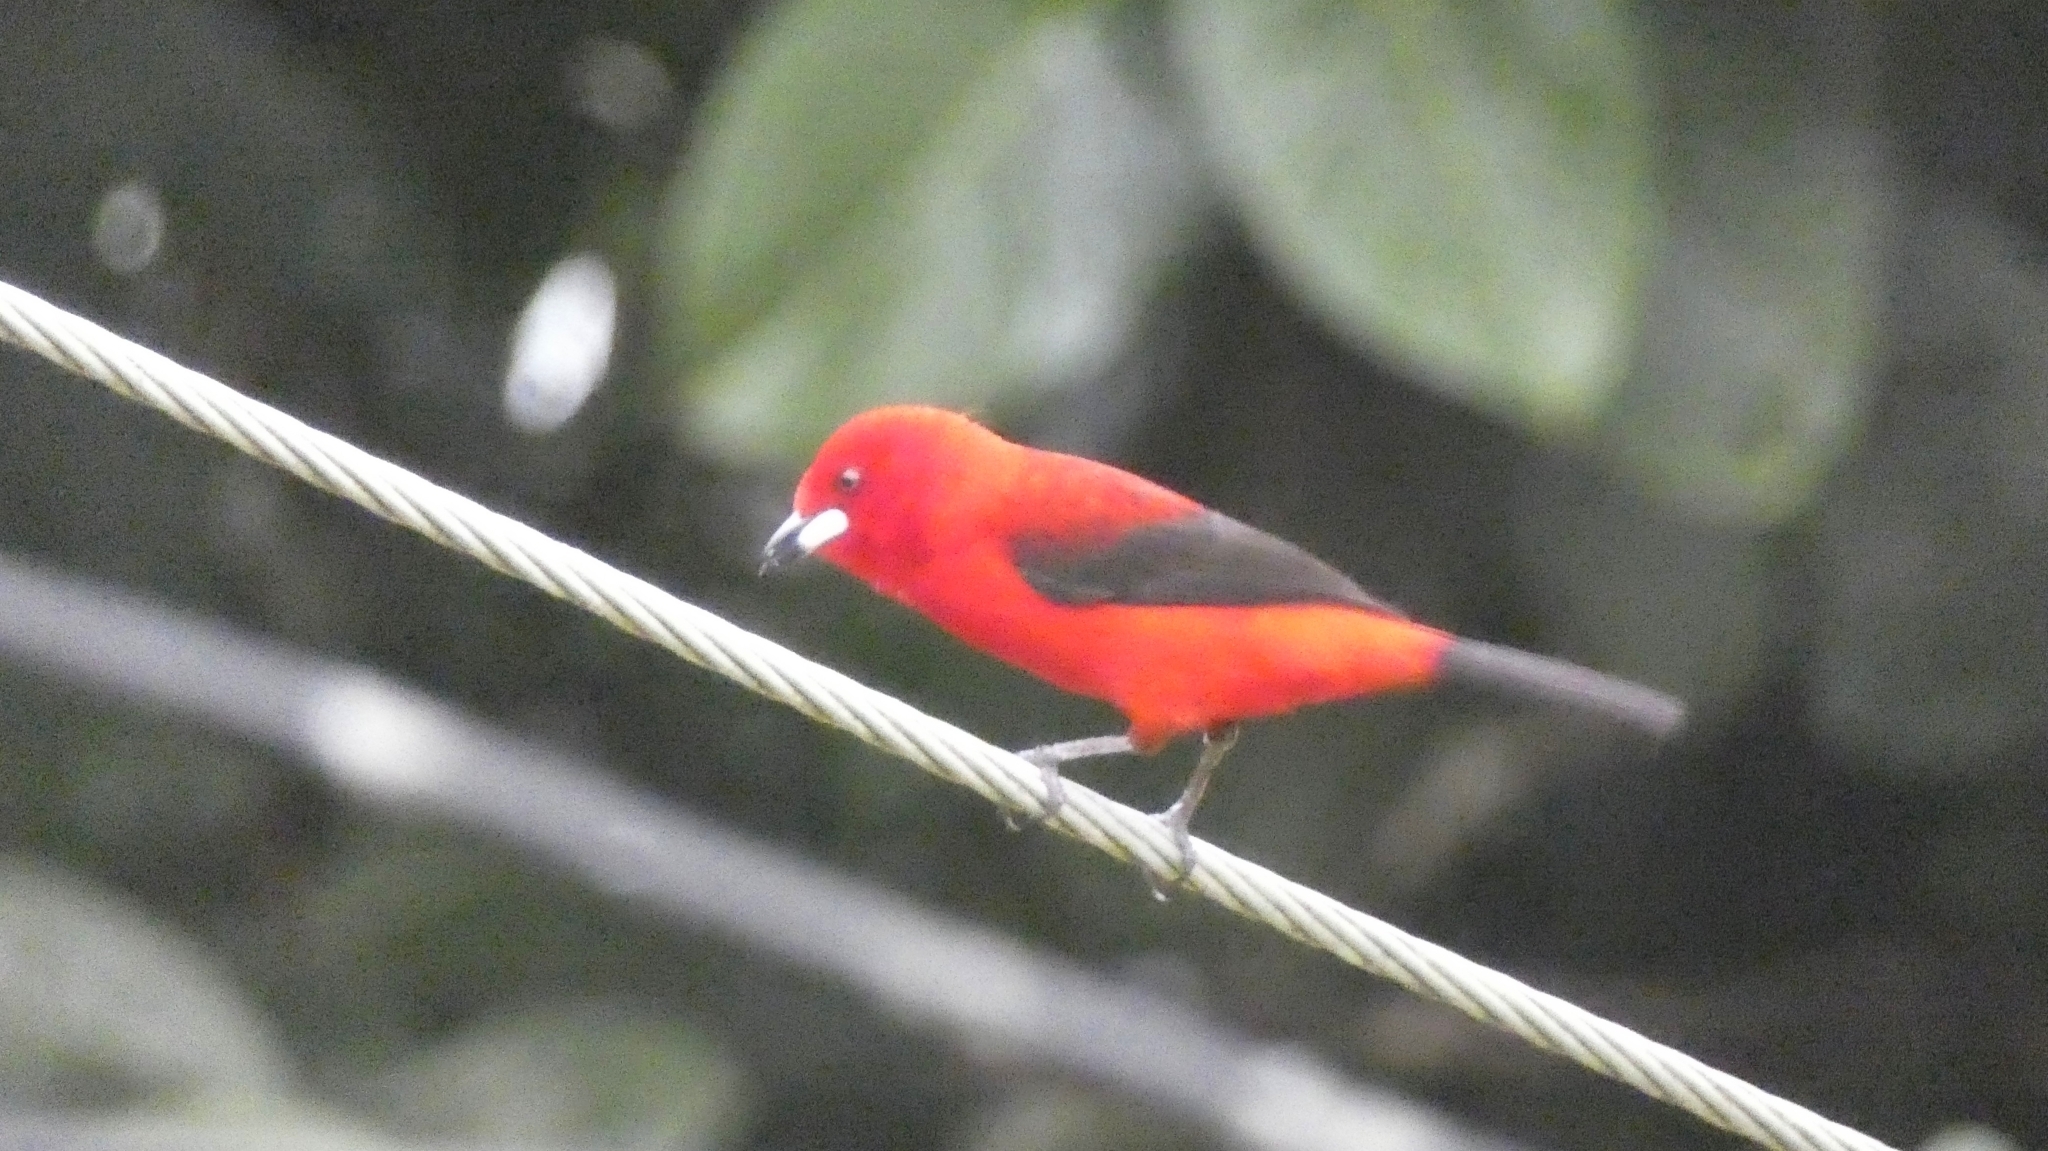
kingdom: Animalia
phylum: Chordata
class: Aves
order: Passeriformes
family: Thraupidae
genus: Ramphocelus
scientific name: Ramphocelus bresilia
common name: Brazilian tanager
